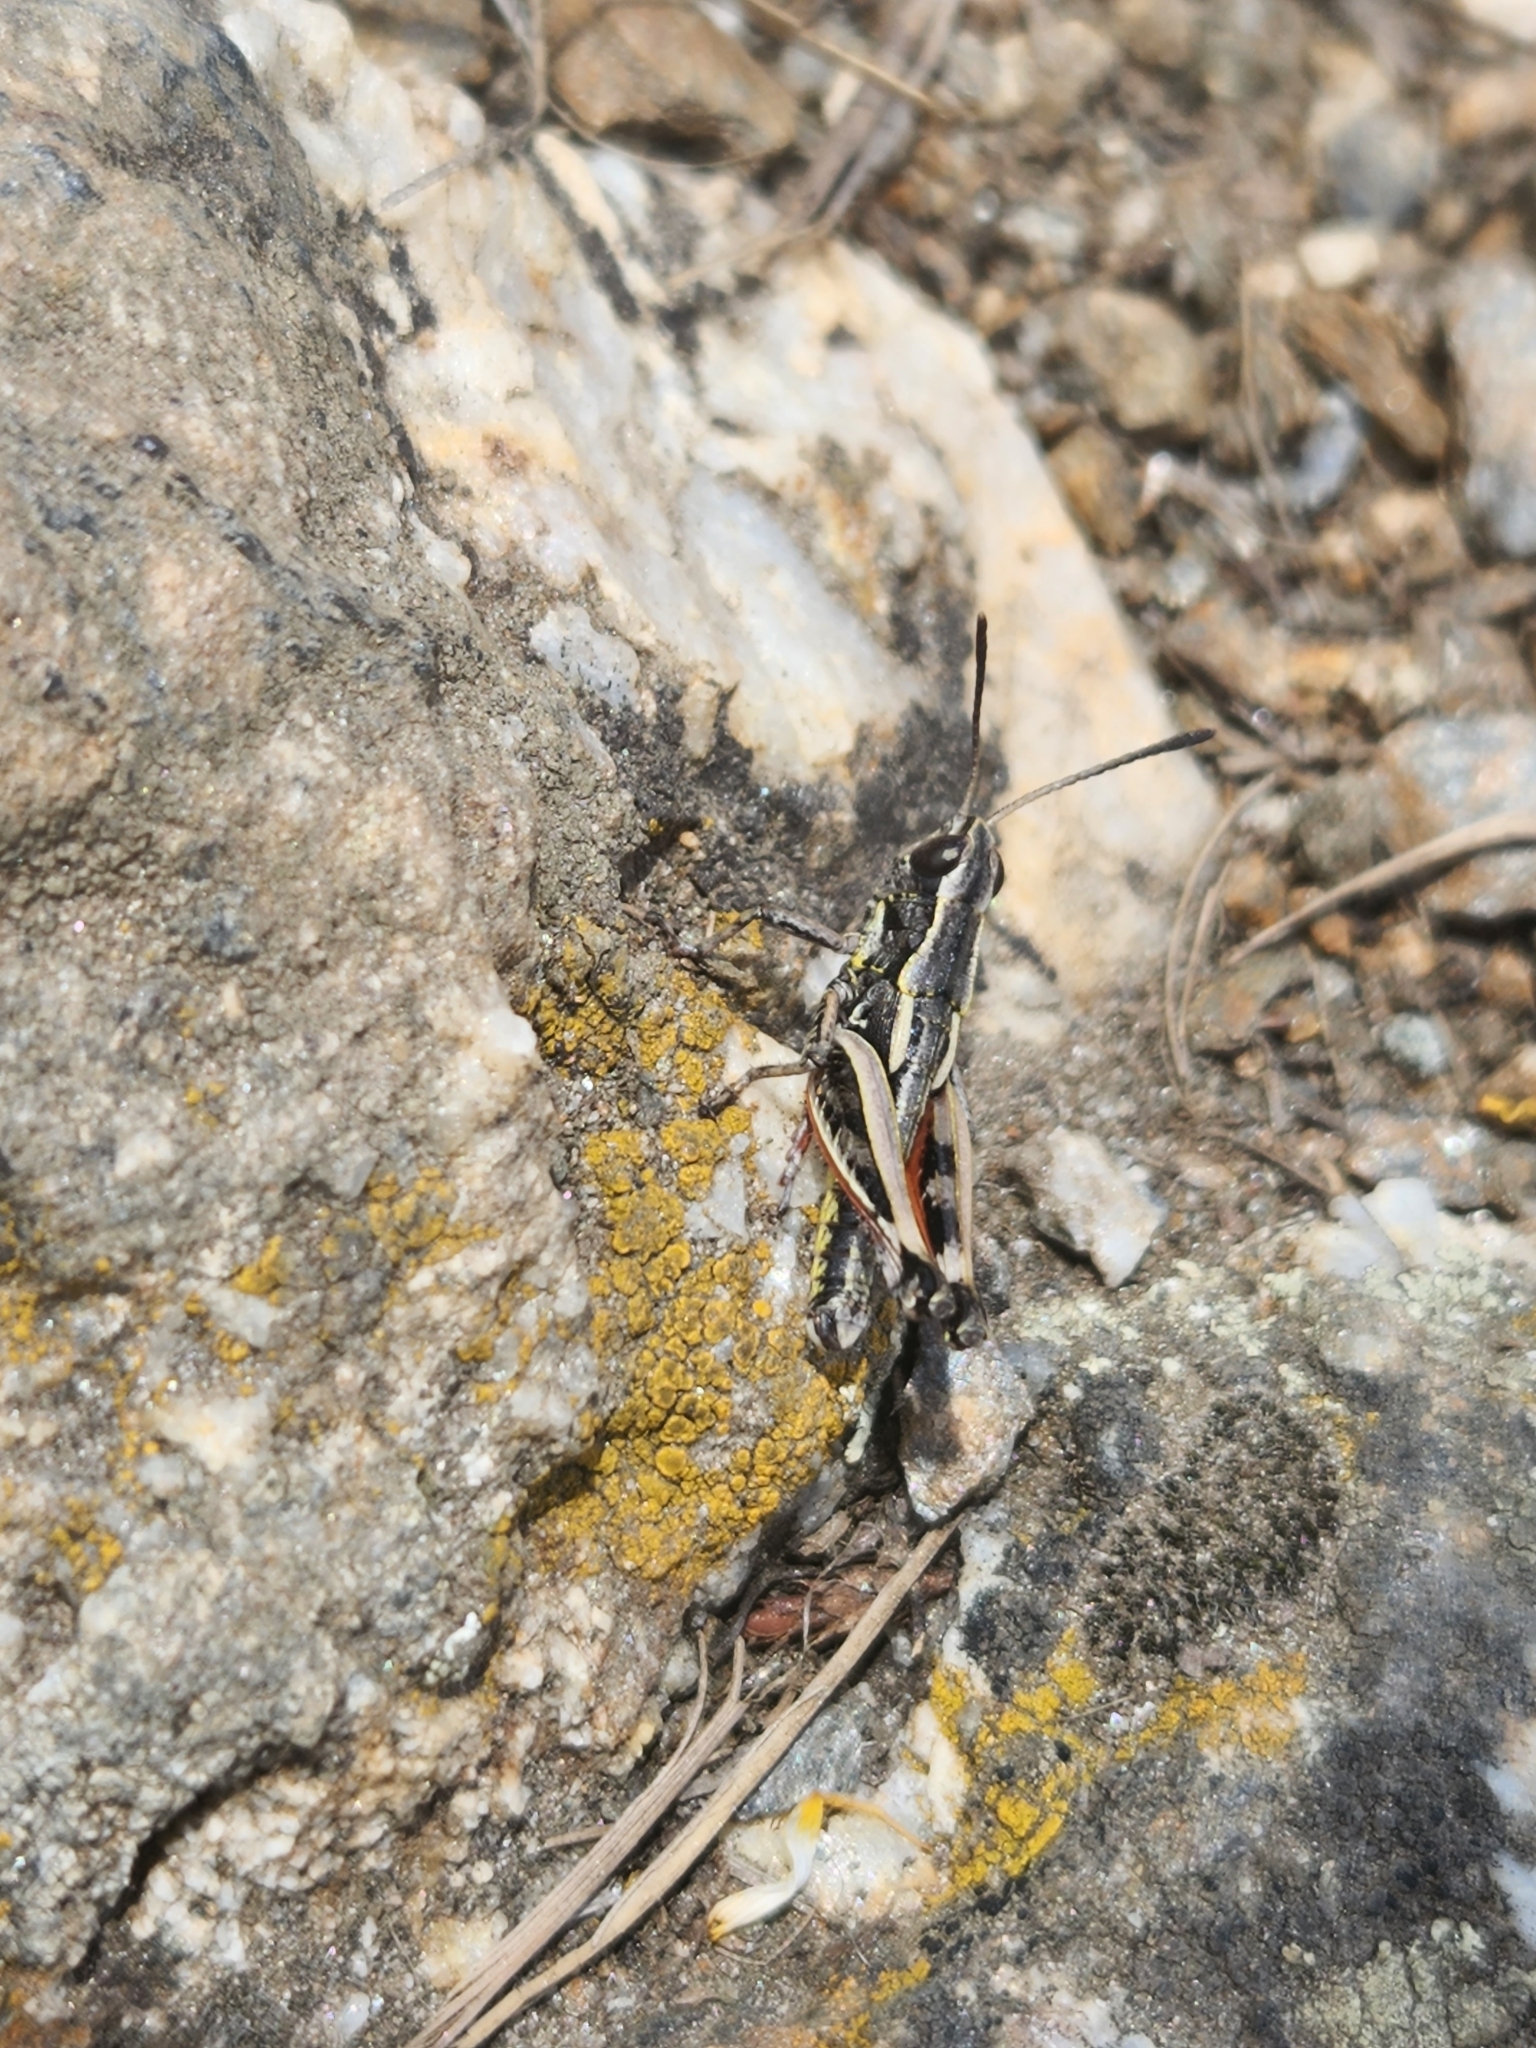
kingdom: Animalia
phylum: Arthropoda
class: Insecta
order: Orthoptera
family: Acrididae
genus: Sigaus
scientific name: Sigaus australis
